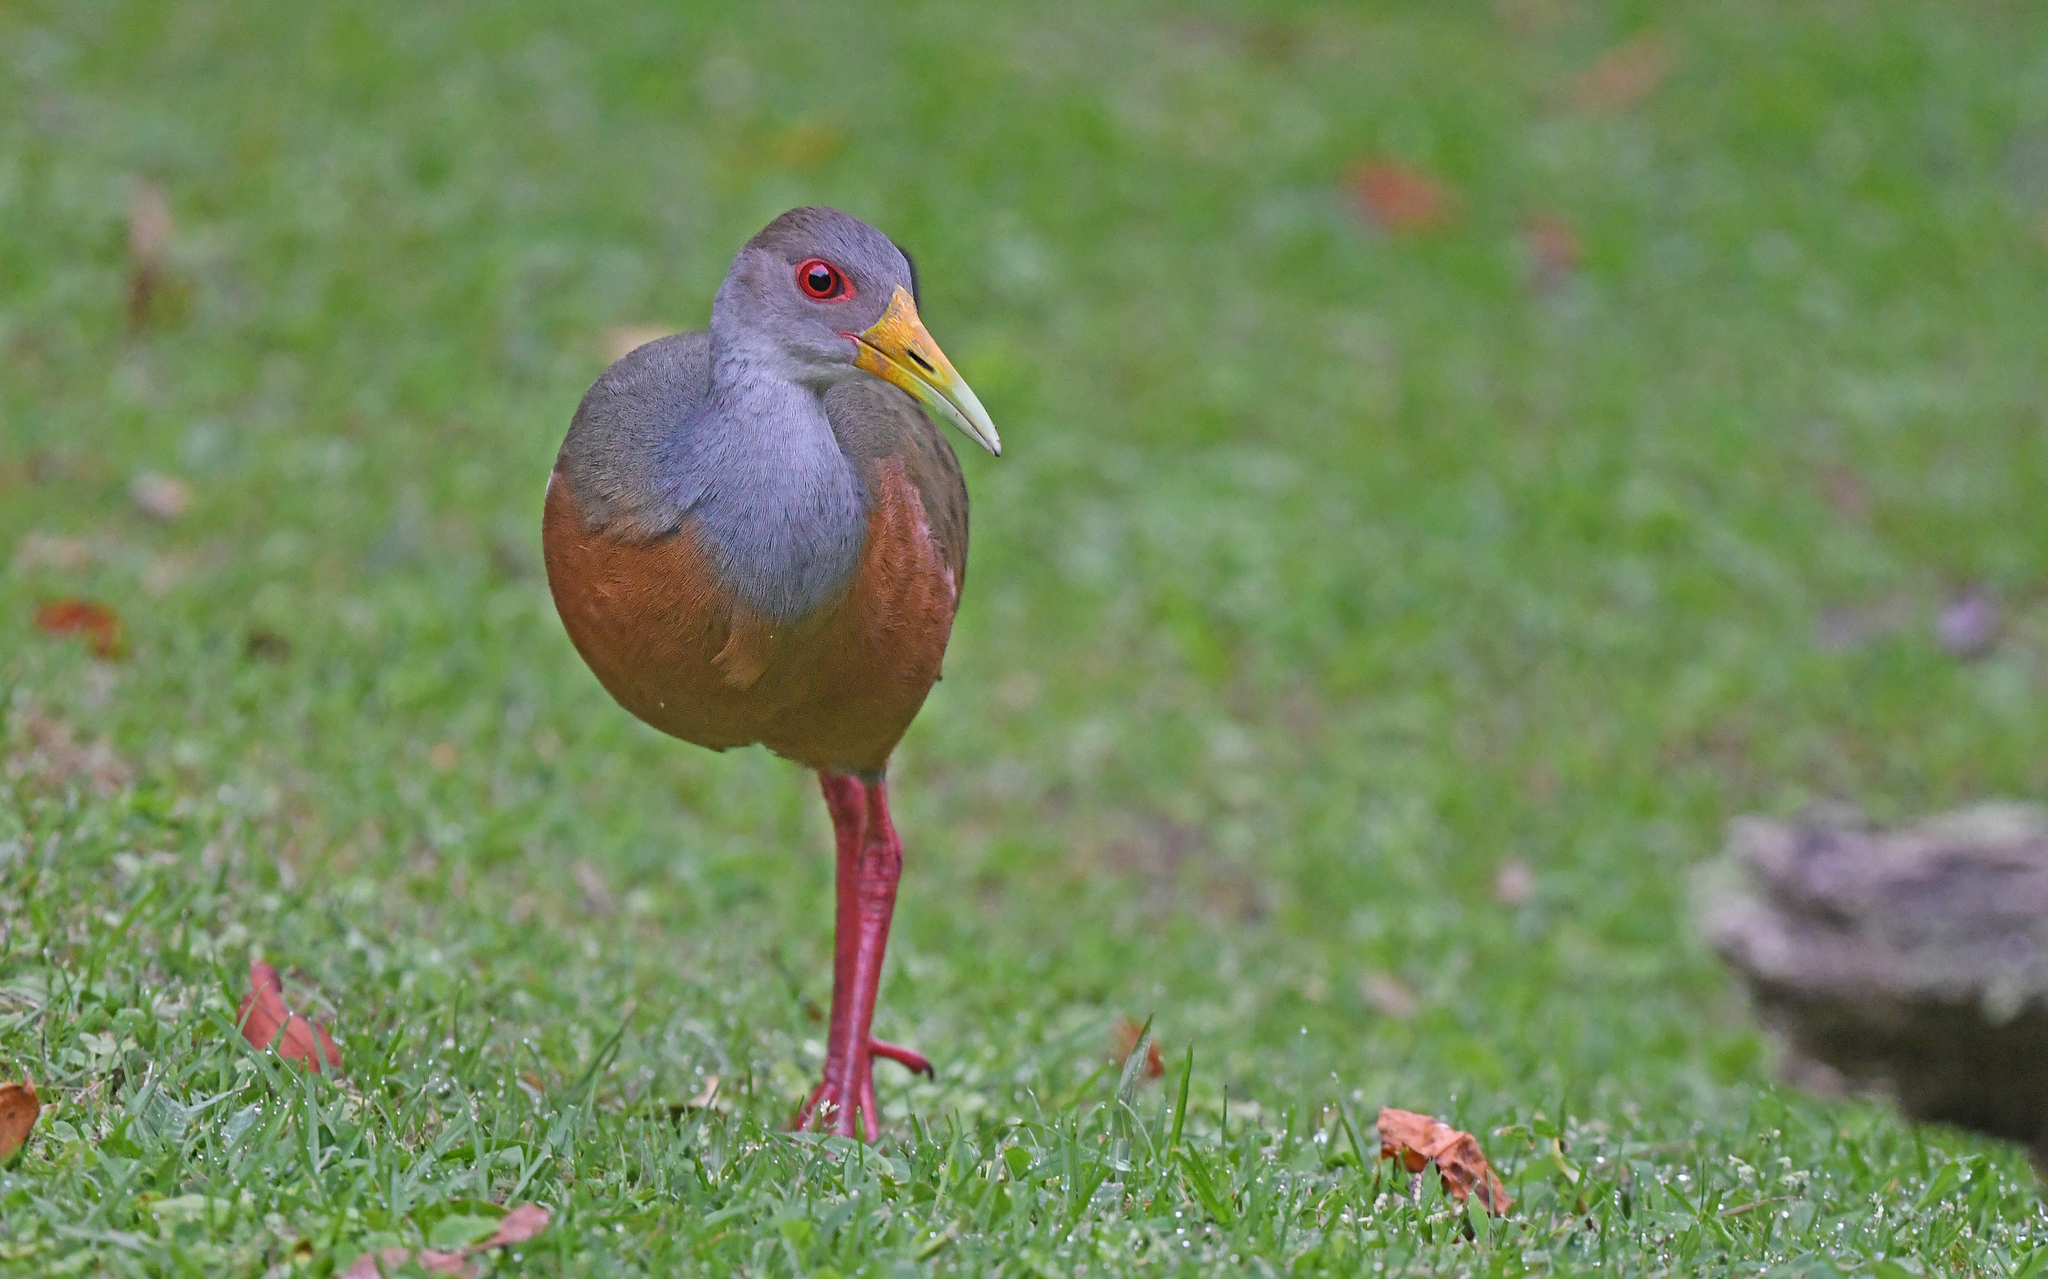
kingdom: Animalia
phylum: Chordata
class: Aves
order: Gruiformes
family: Rallidae
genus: Aramides
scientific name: Aramides cajanea
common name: Gray-necked wood-rail
